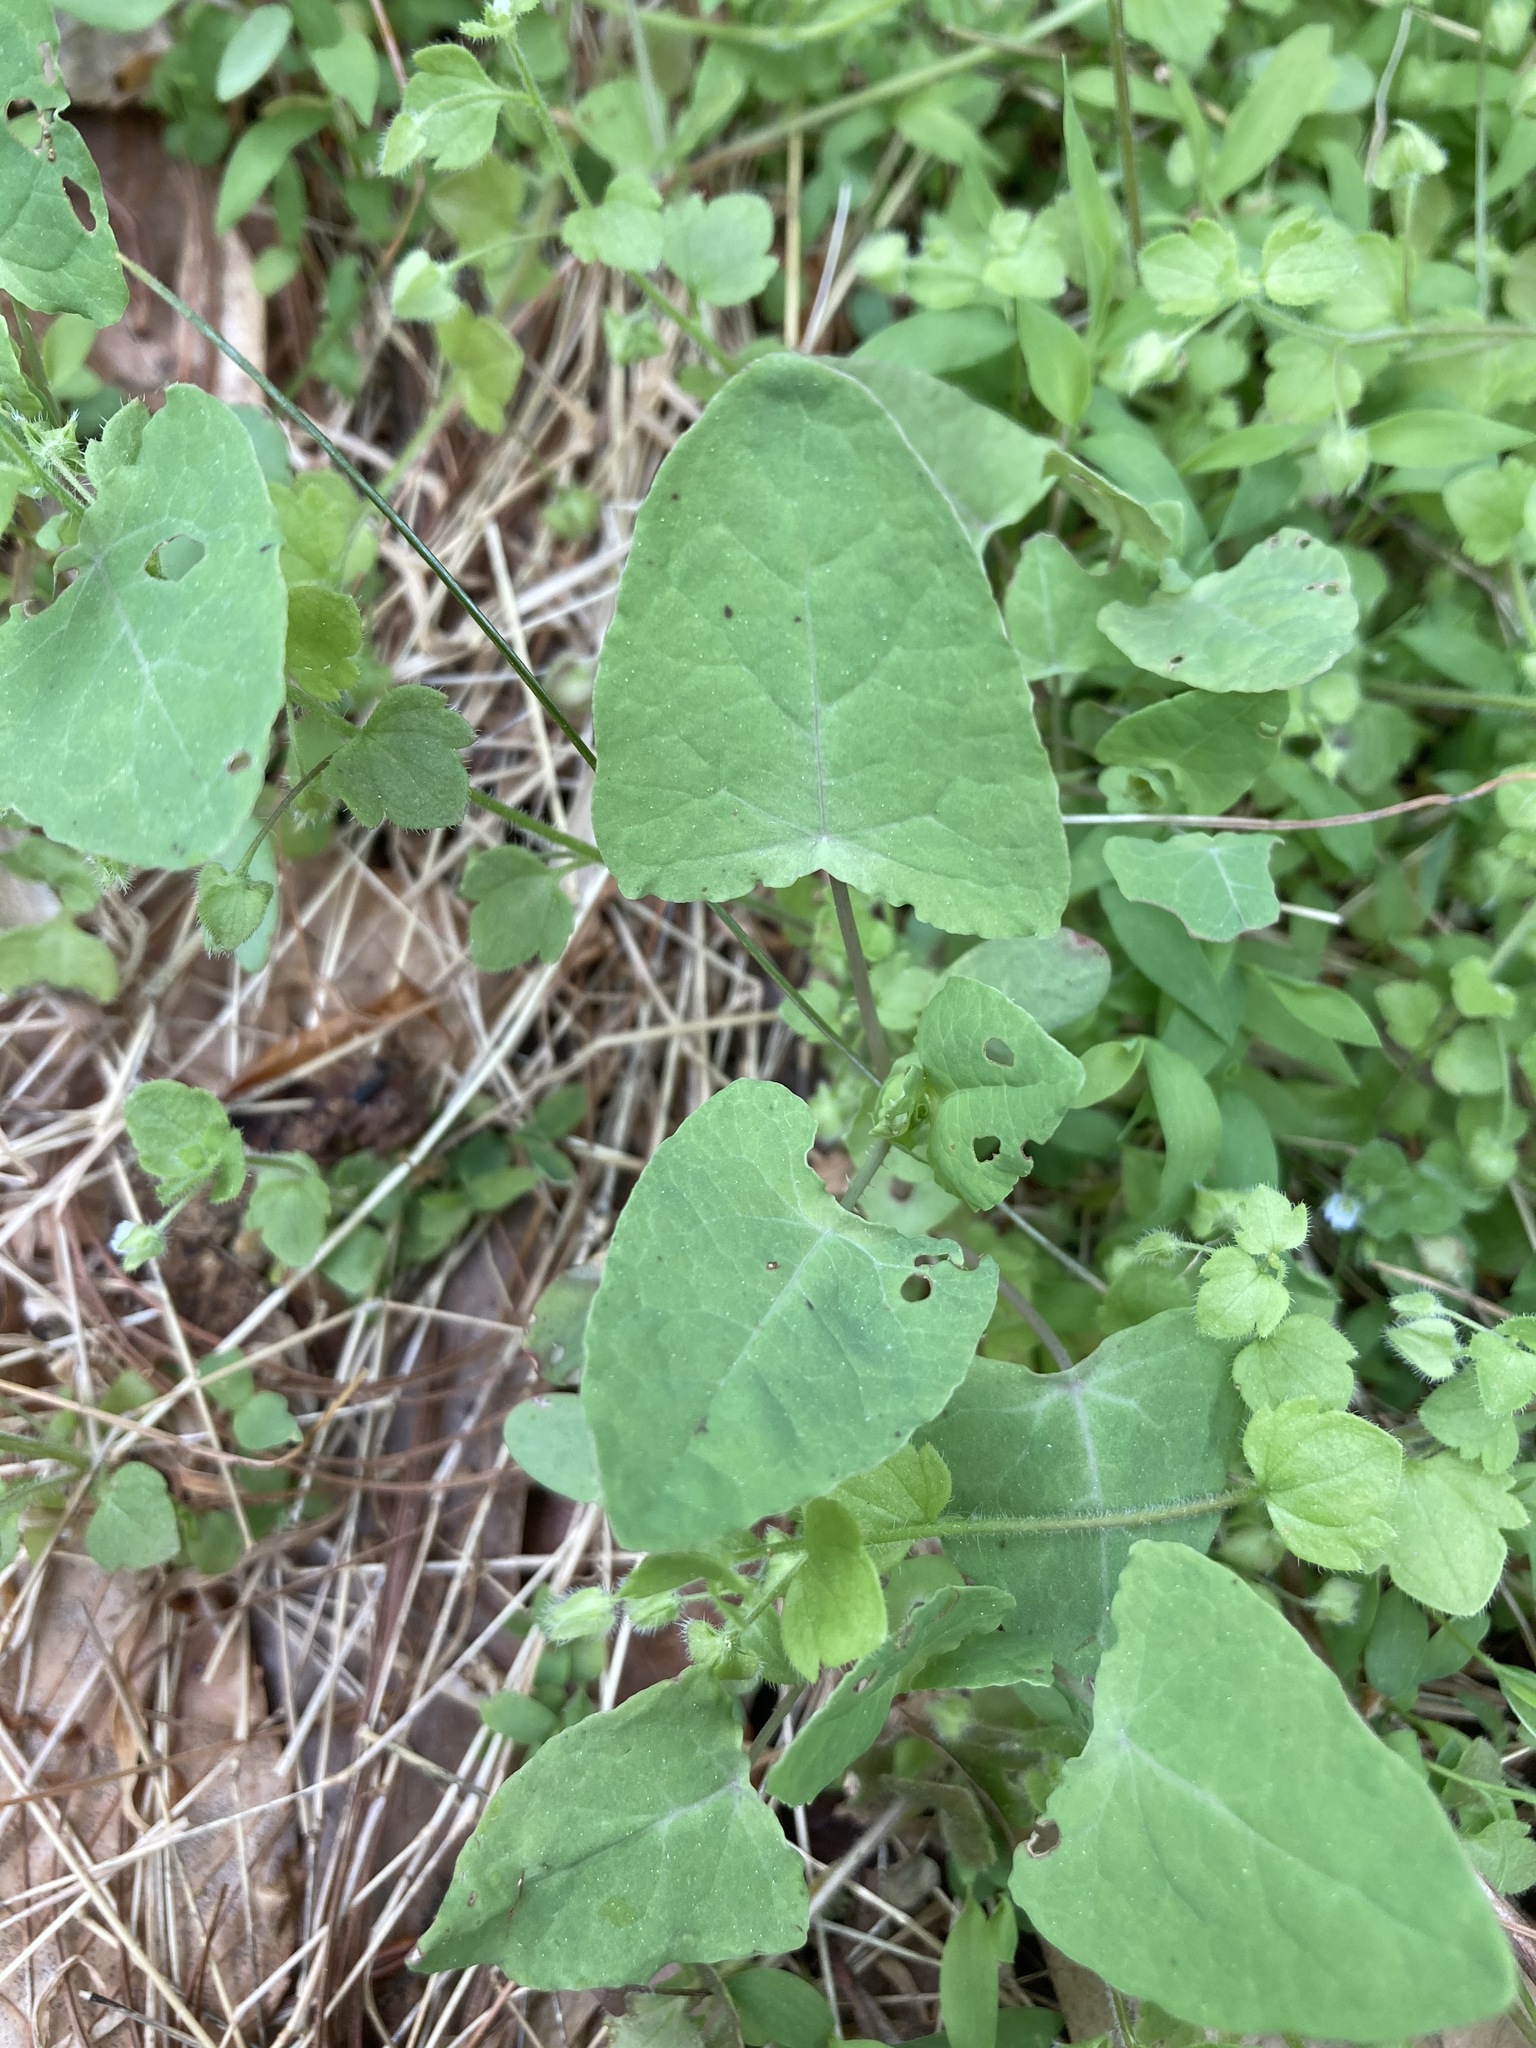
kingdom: Plantae
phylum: Tracheophyta
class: Magnoliopsida
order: Caryophyllales
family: Polygonaceae
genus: Persicaria
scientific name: Persicaria perfoliata
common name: Asiatic tearthumb
